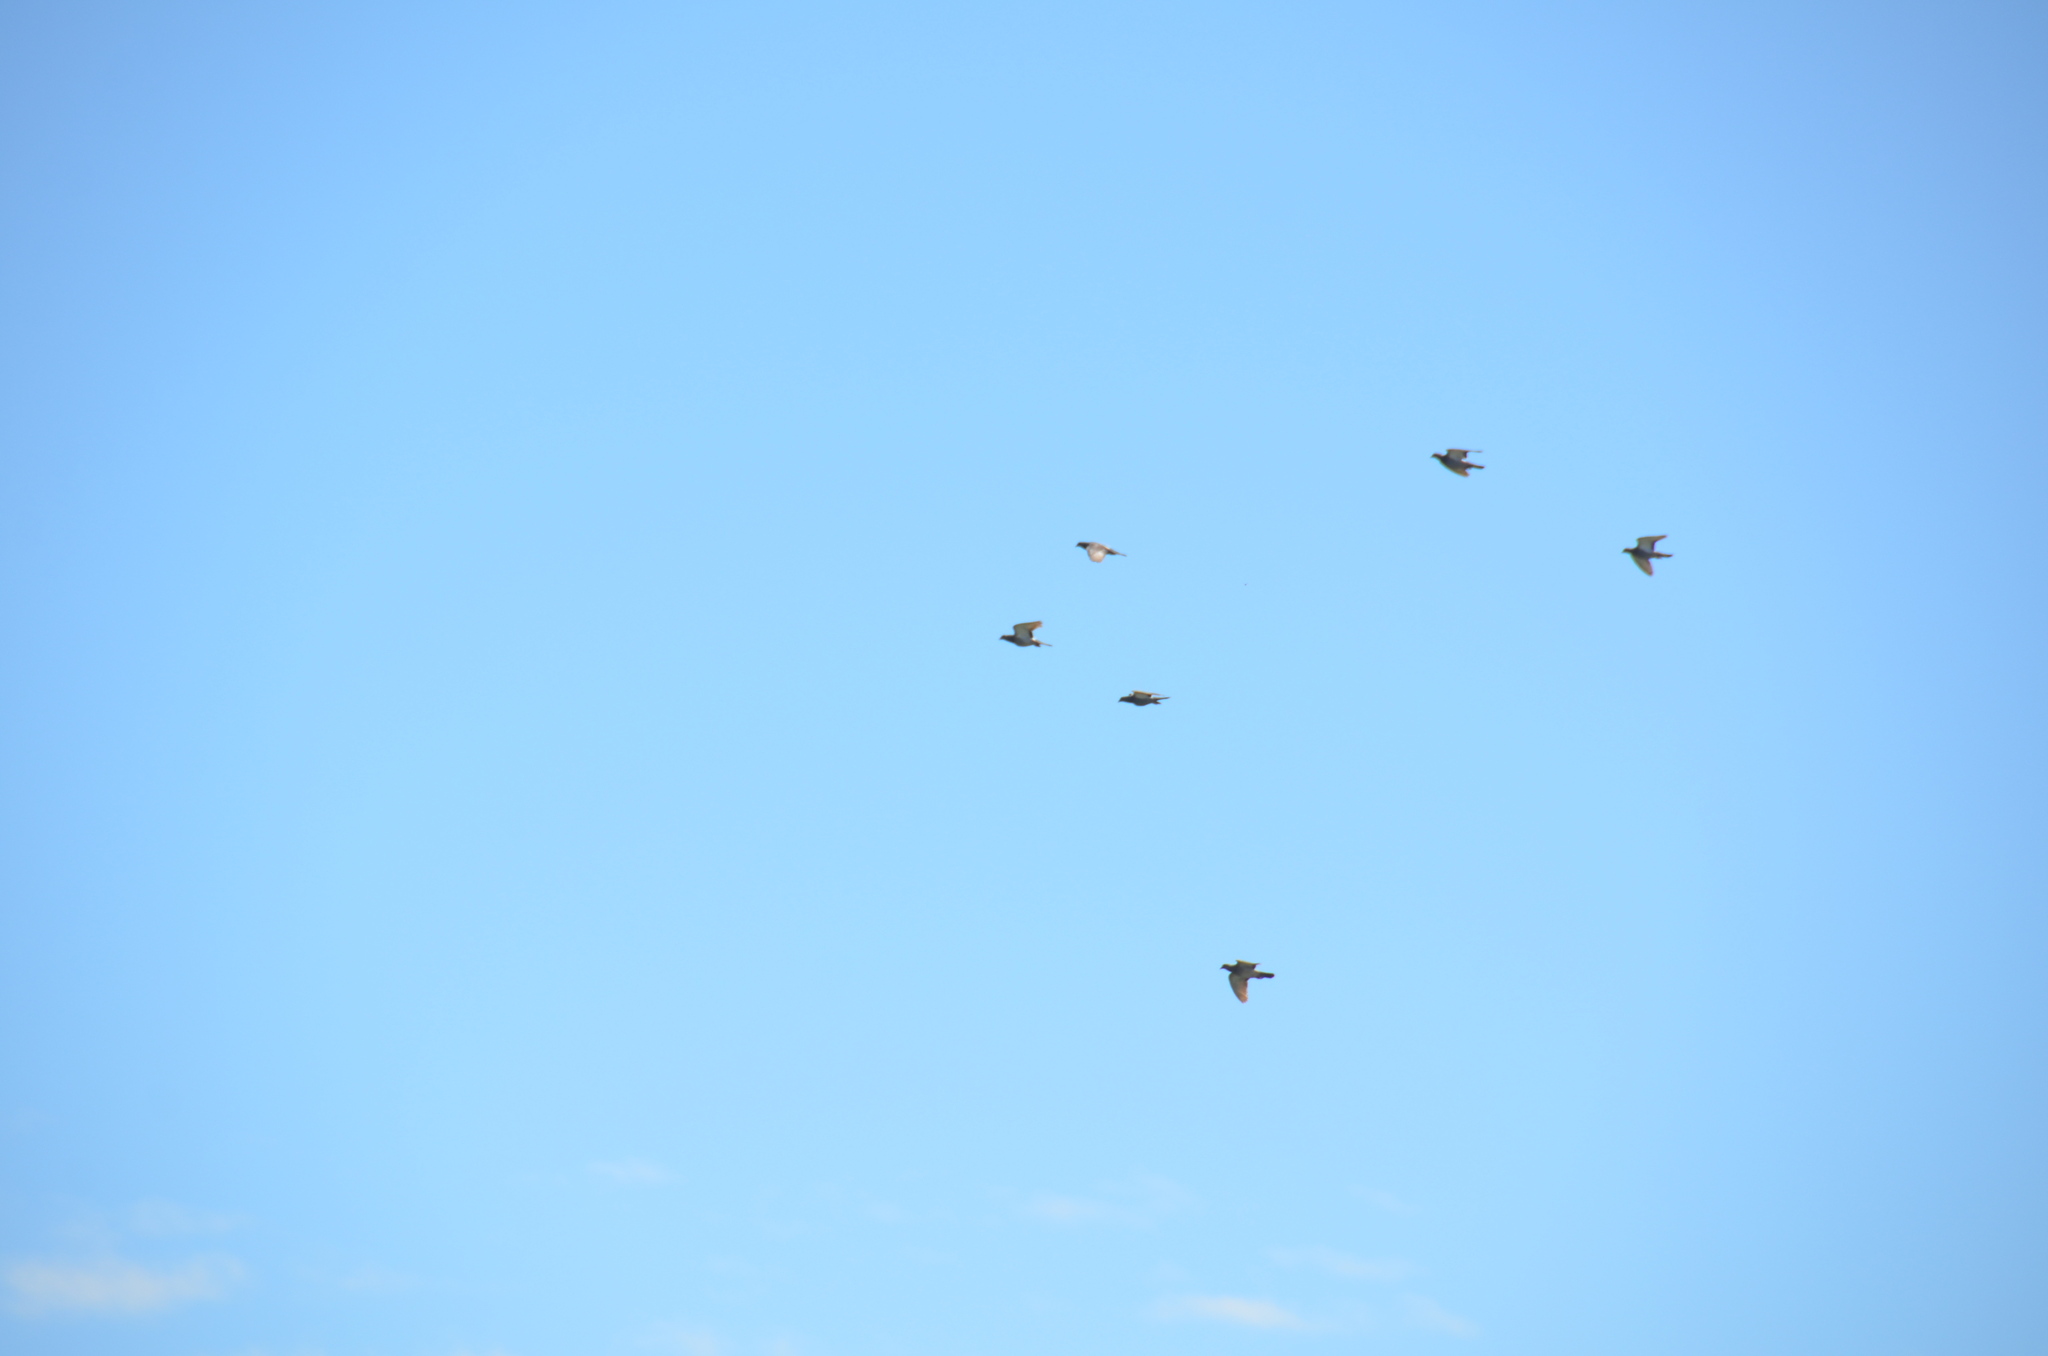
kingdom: Animalia
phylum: Chordata
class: Aves
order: Columbiformes
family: Columbidae
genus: Columba
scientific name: Columba livia
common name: Rock pigeon
